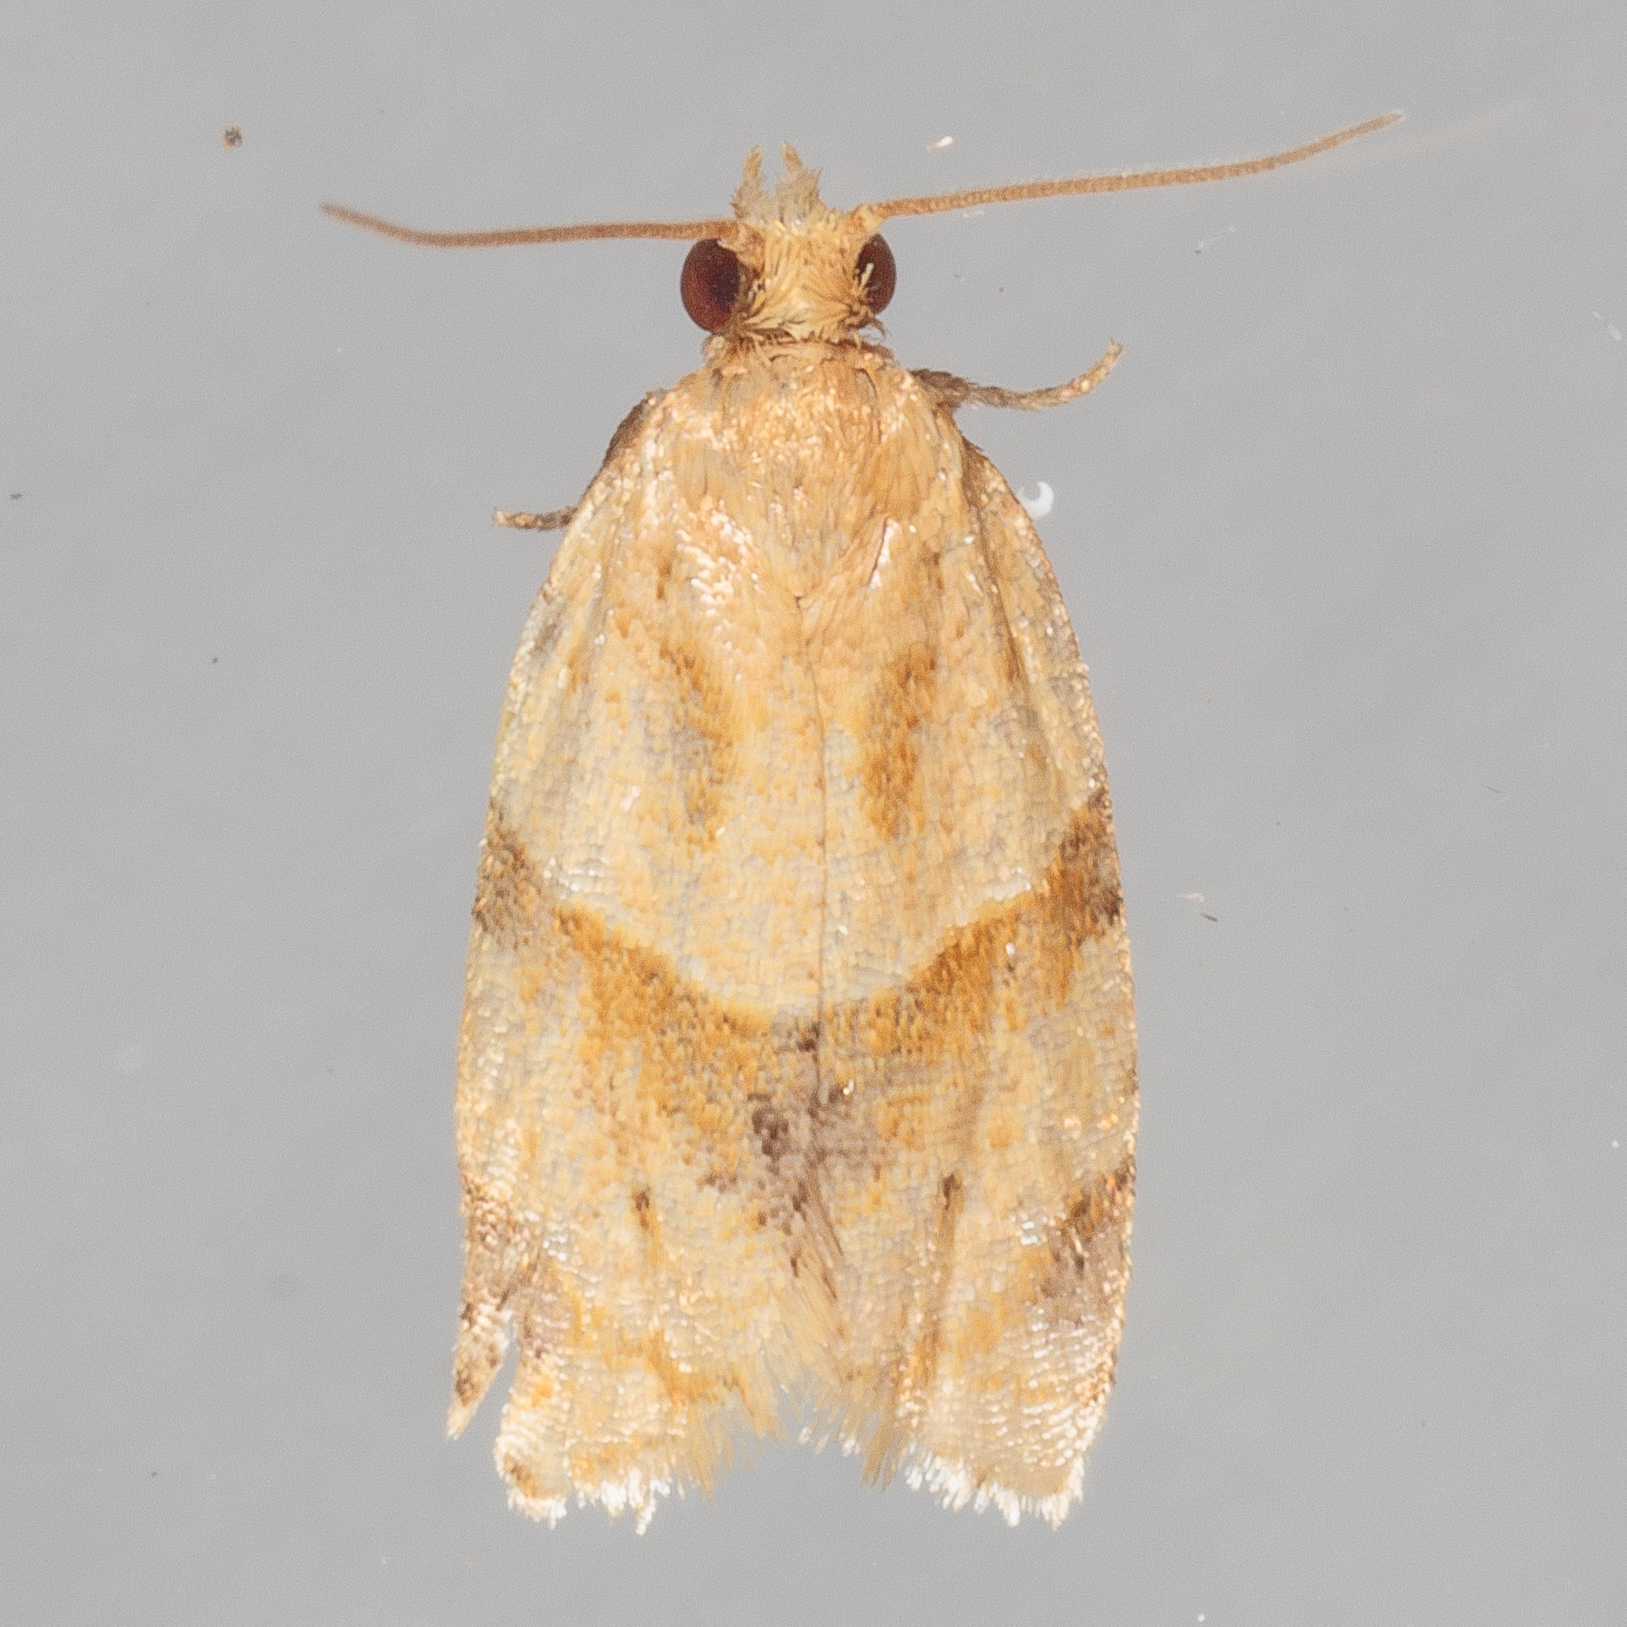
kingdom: Animalia
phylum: Arthropoda
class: Insecta
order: Lepidoptera
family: Tortricidae
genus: Clepsis
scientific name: Clepsis peritana
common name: Garden tortrix
